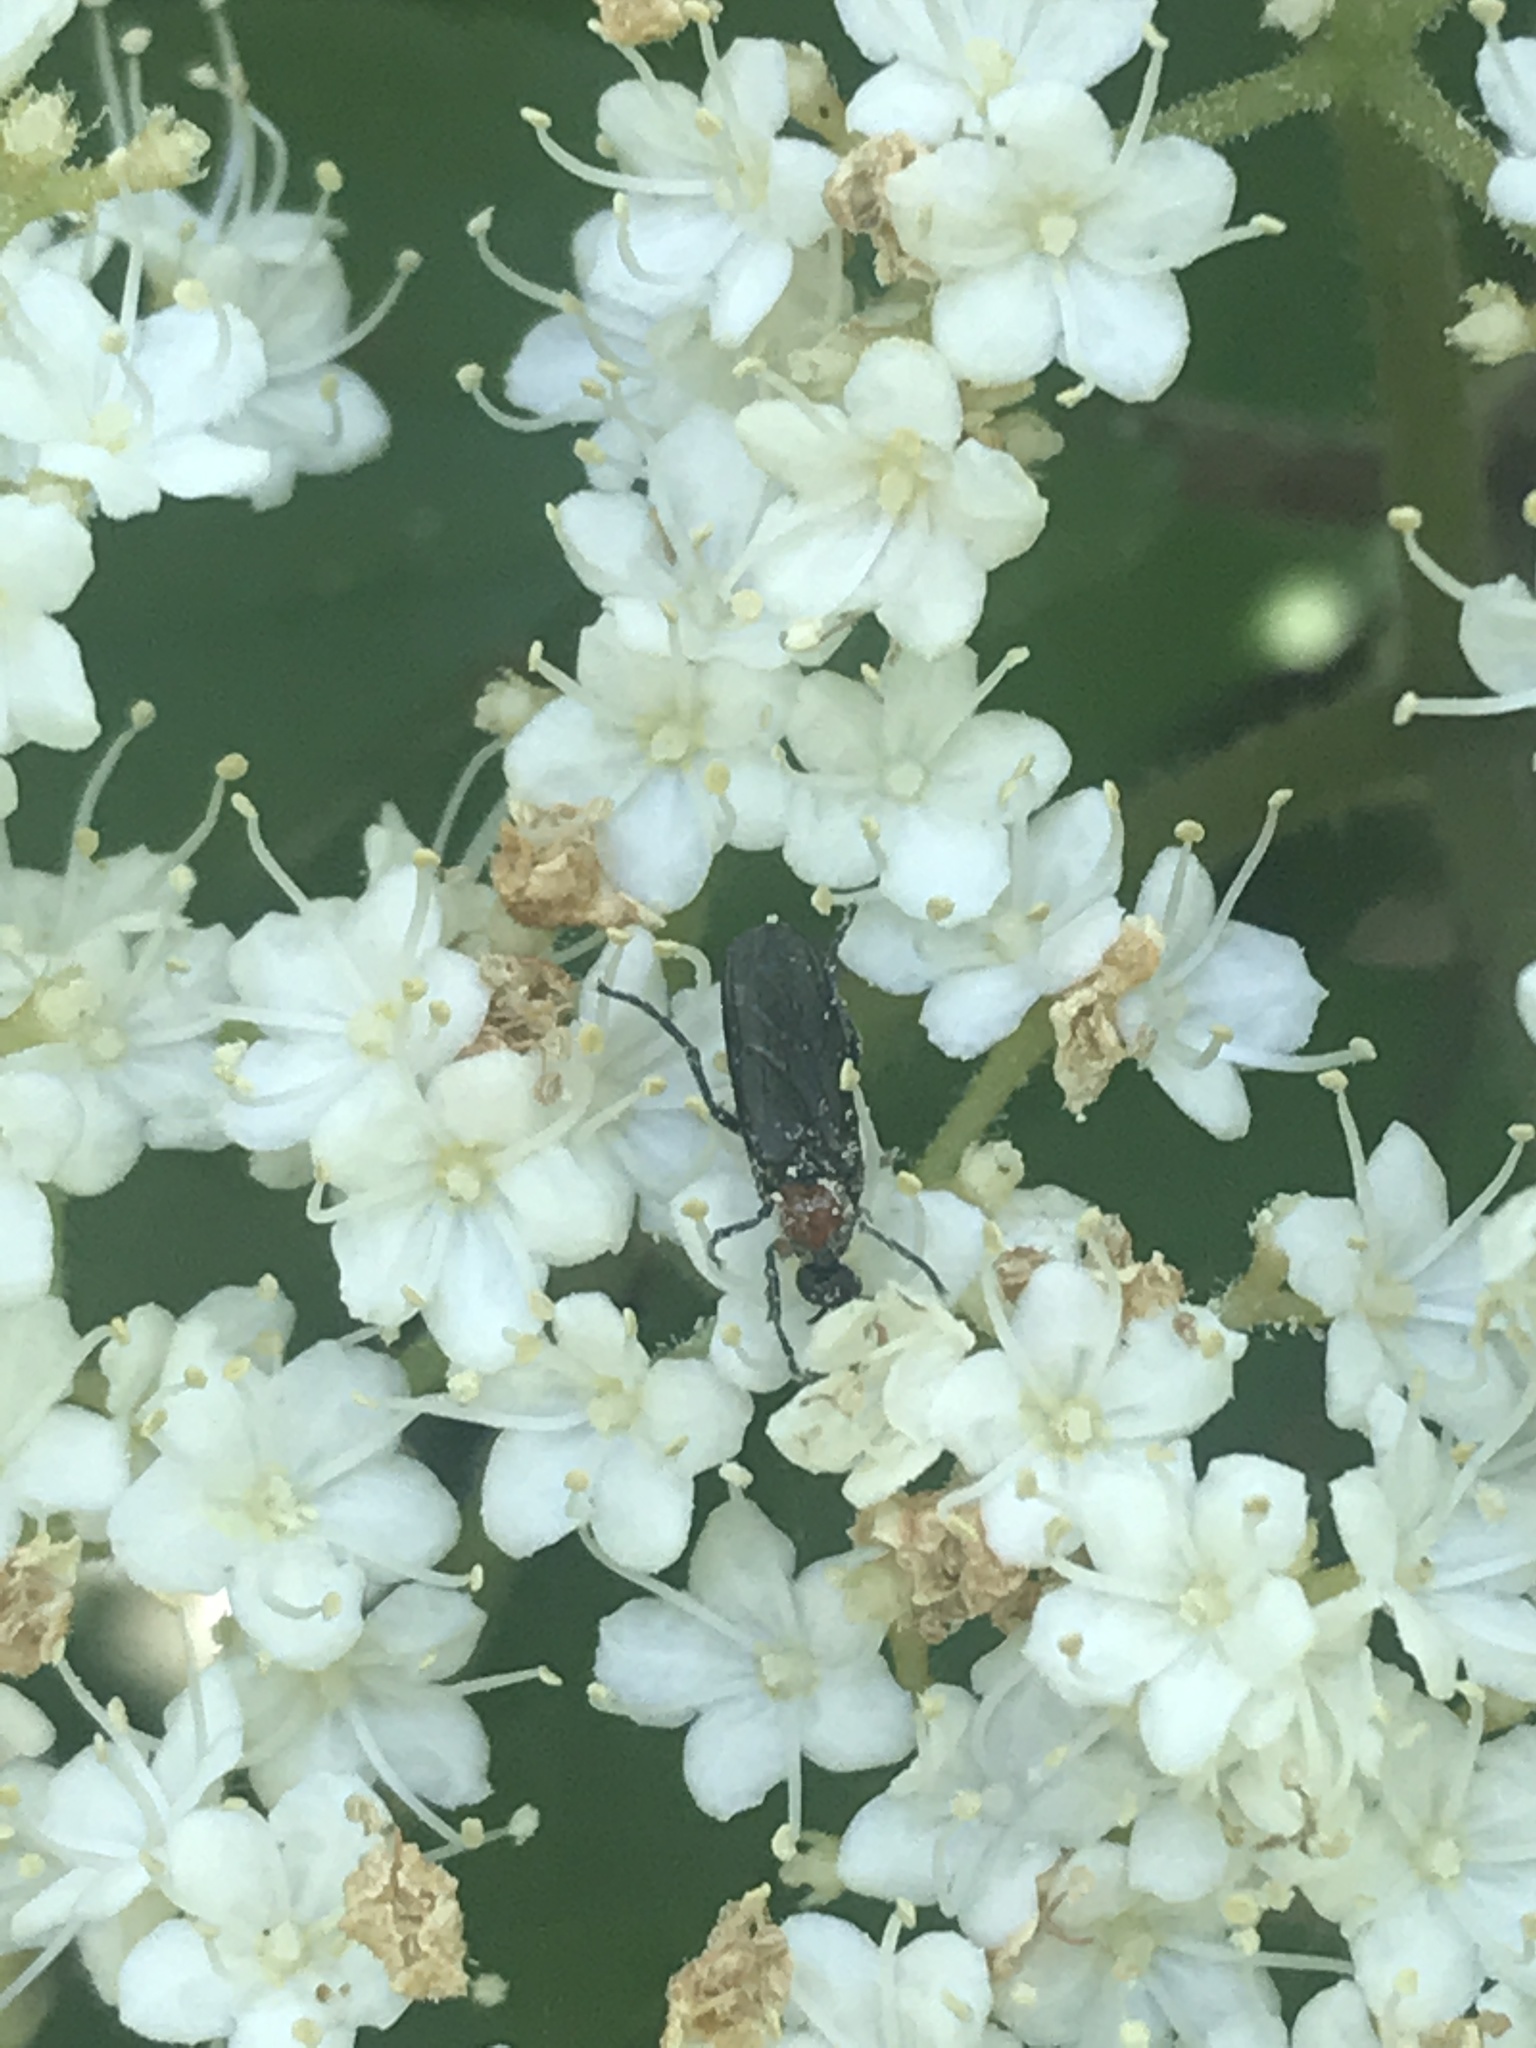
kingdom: Animalia
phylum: Arthropoda
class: Insecta
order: Diptera
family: Bibionidae
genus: Dilophus
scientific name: Dilophus spinipes
